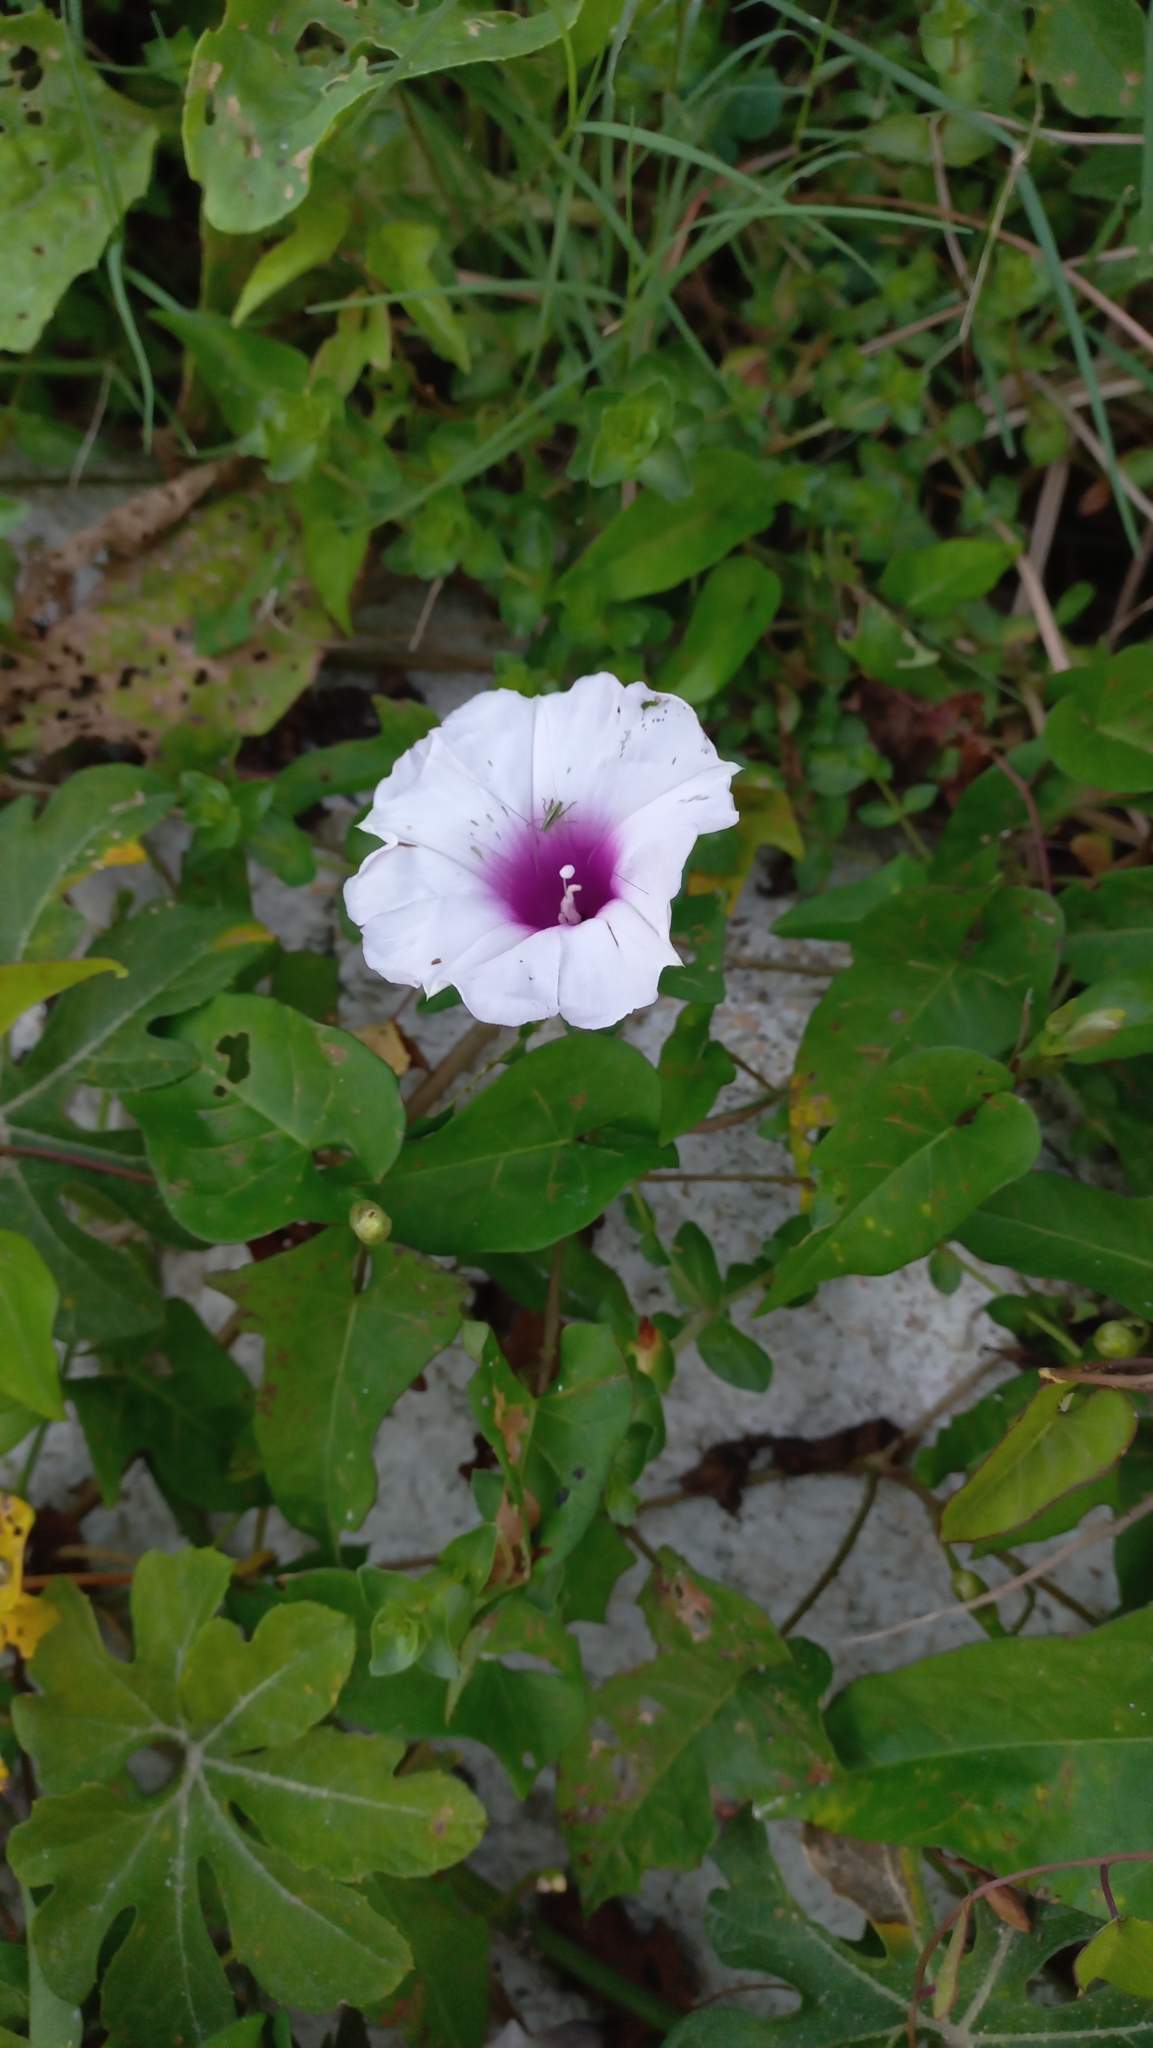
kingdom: Plantae
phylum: Tracheophyta
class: Magnoliopsida
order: Solanales
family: Convolvulaceae
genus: Ipomoea
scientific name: Ipomoea tiliacea
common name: Wild potato vine
